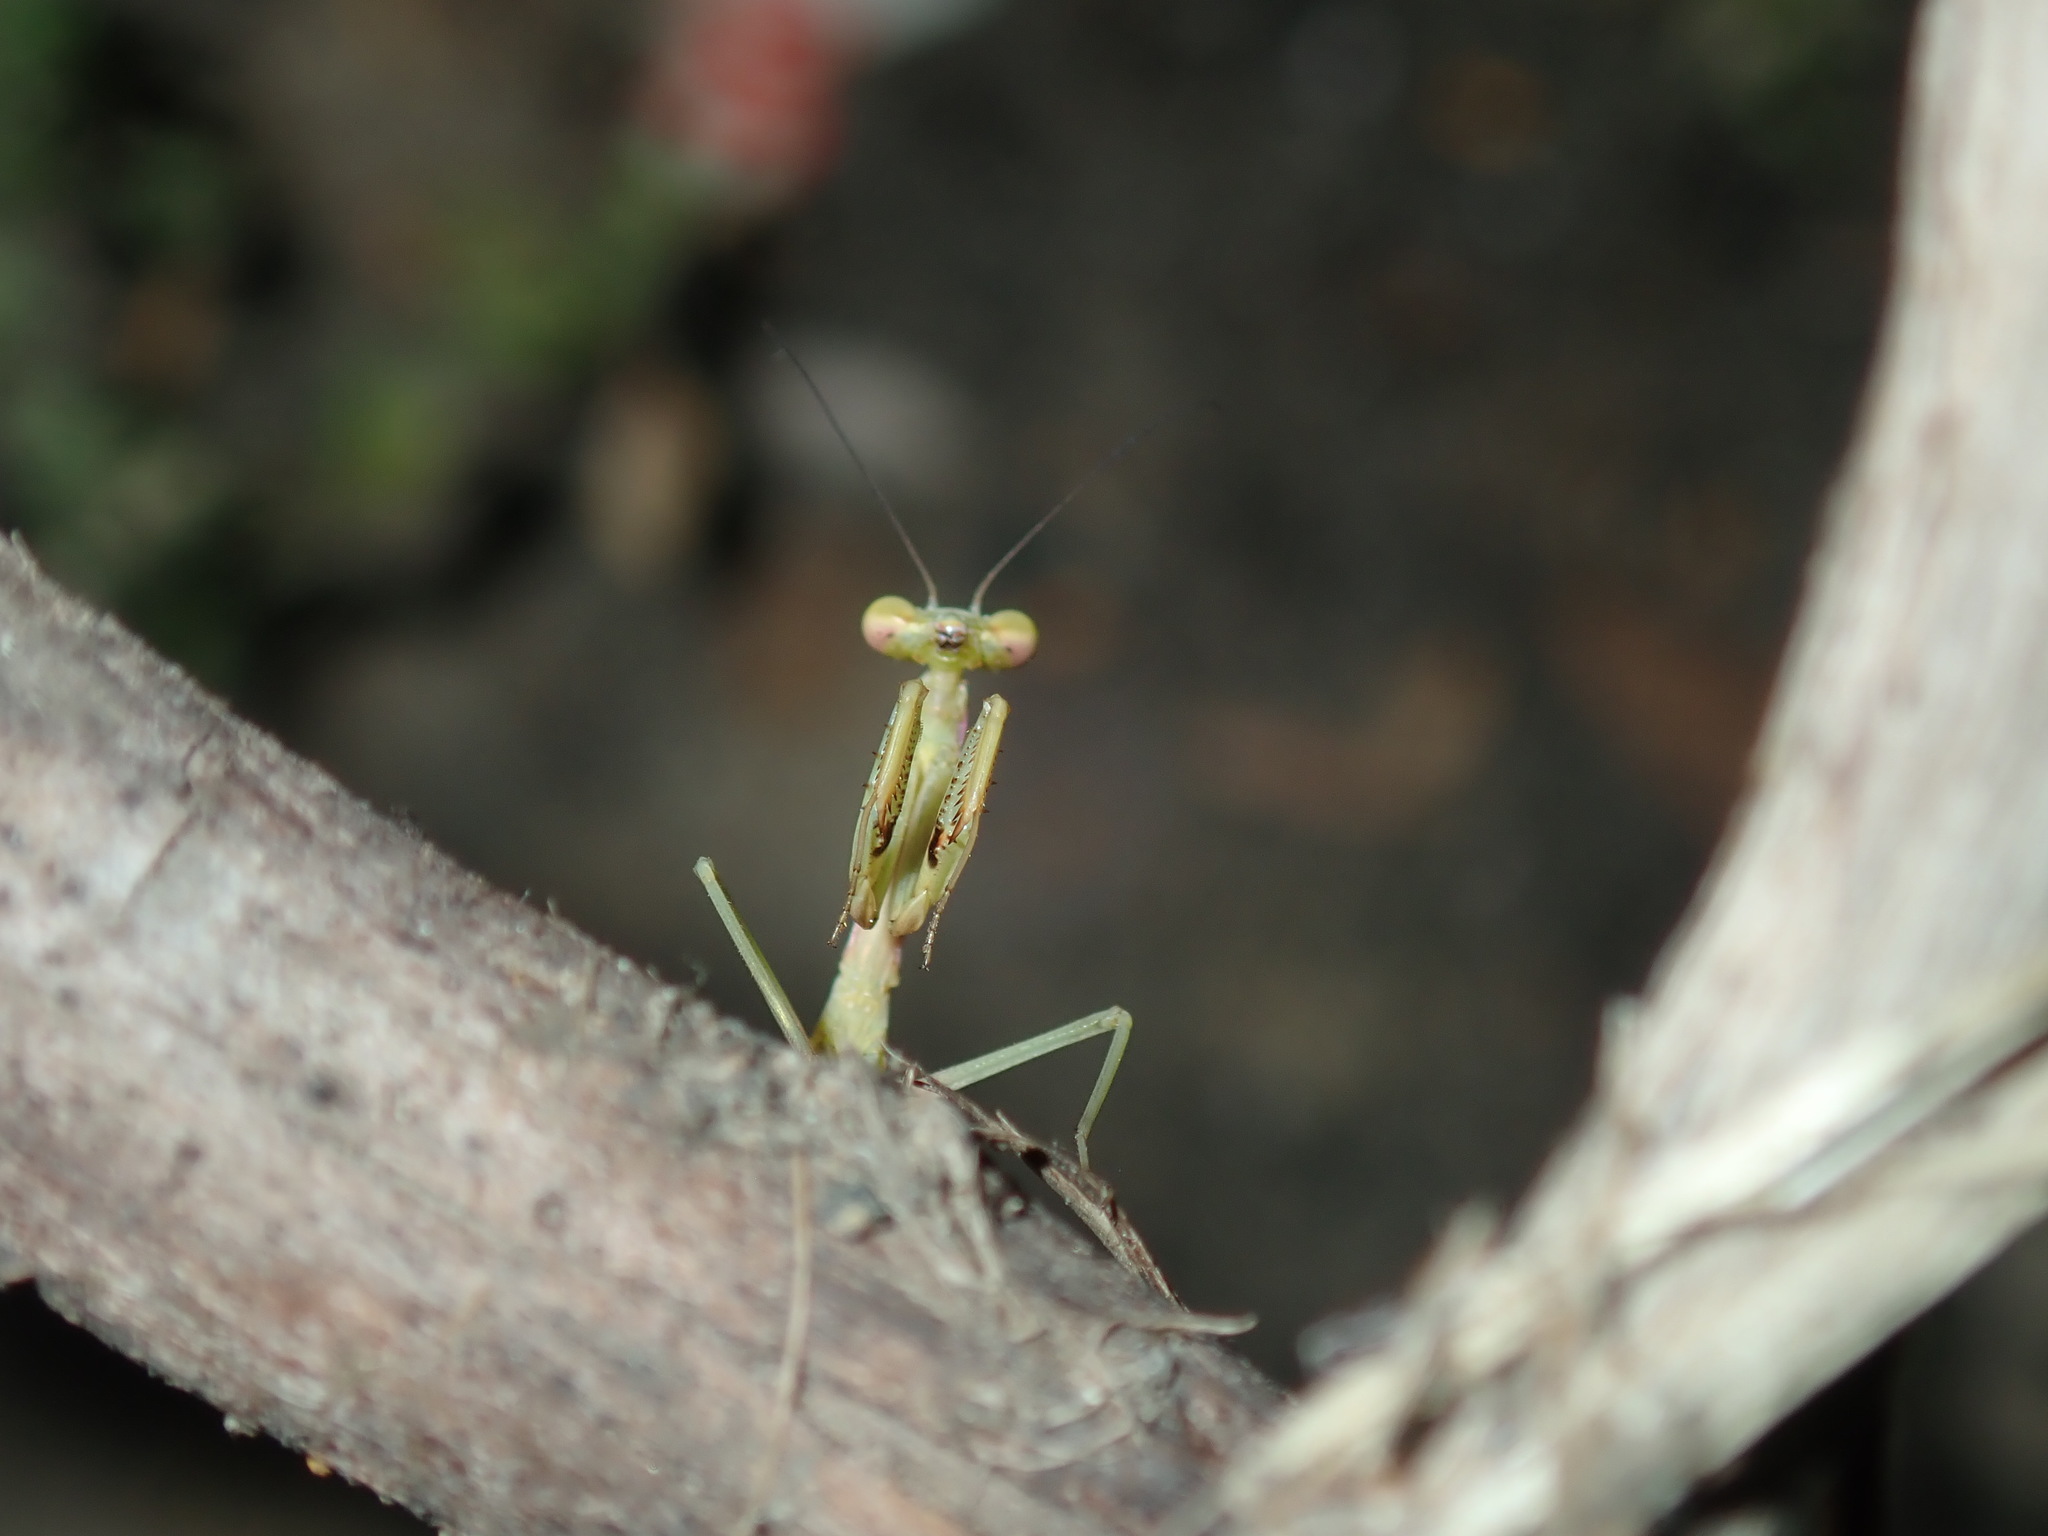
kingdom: Animalia
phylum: Arthropoda
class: Insecta
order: Mantodea
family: Mantidae
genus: Pseudomantis
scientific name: Pseudomantis albofimbriata
